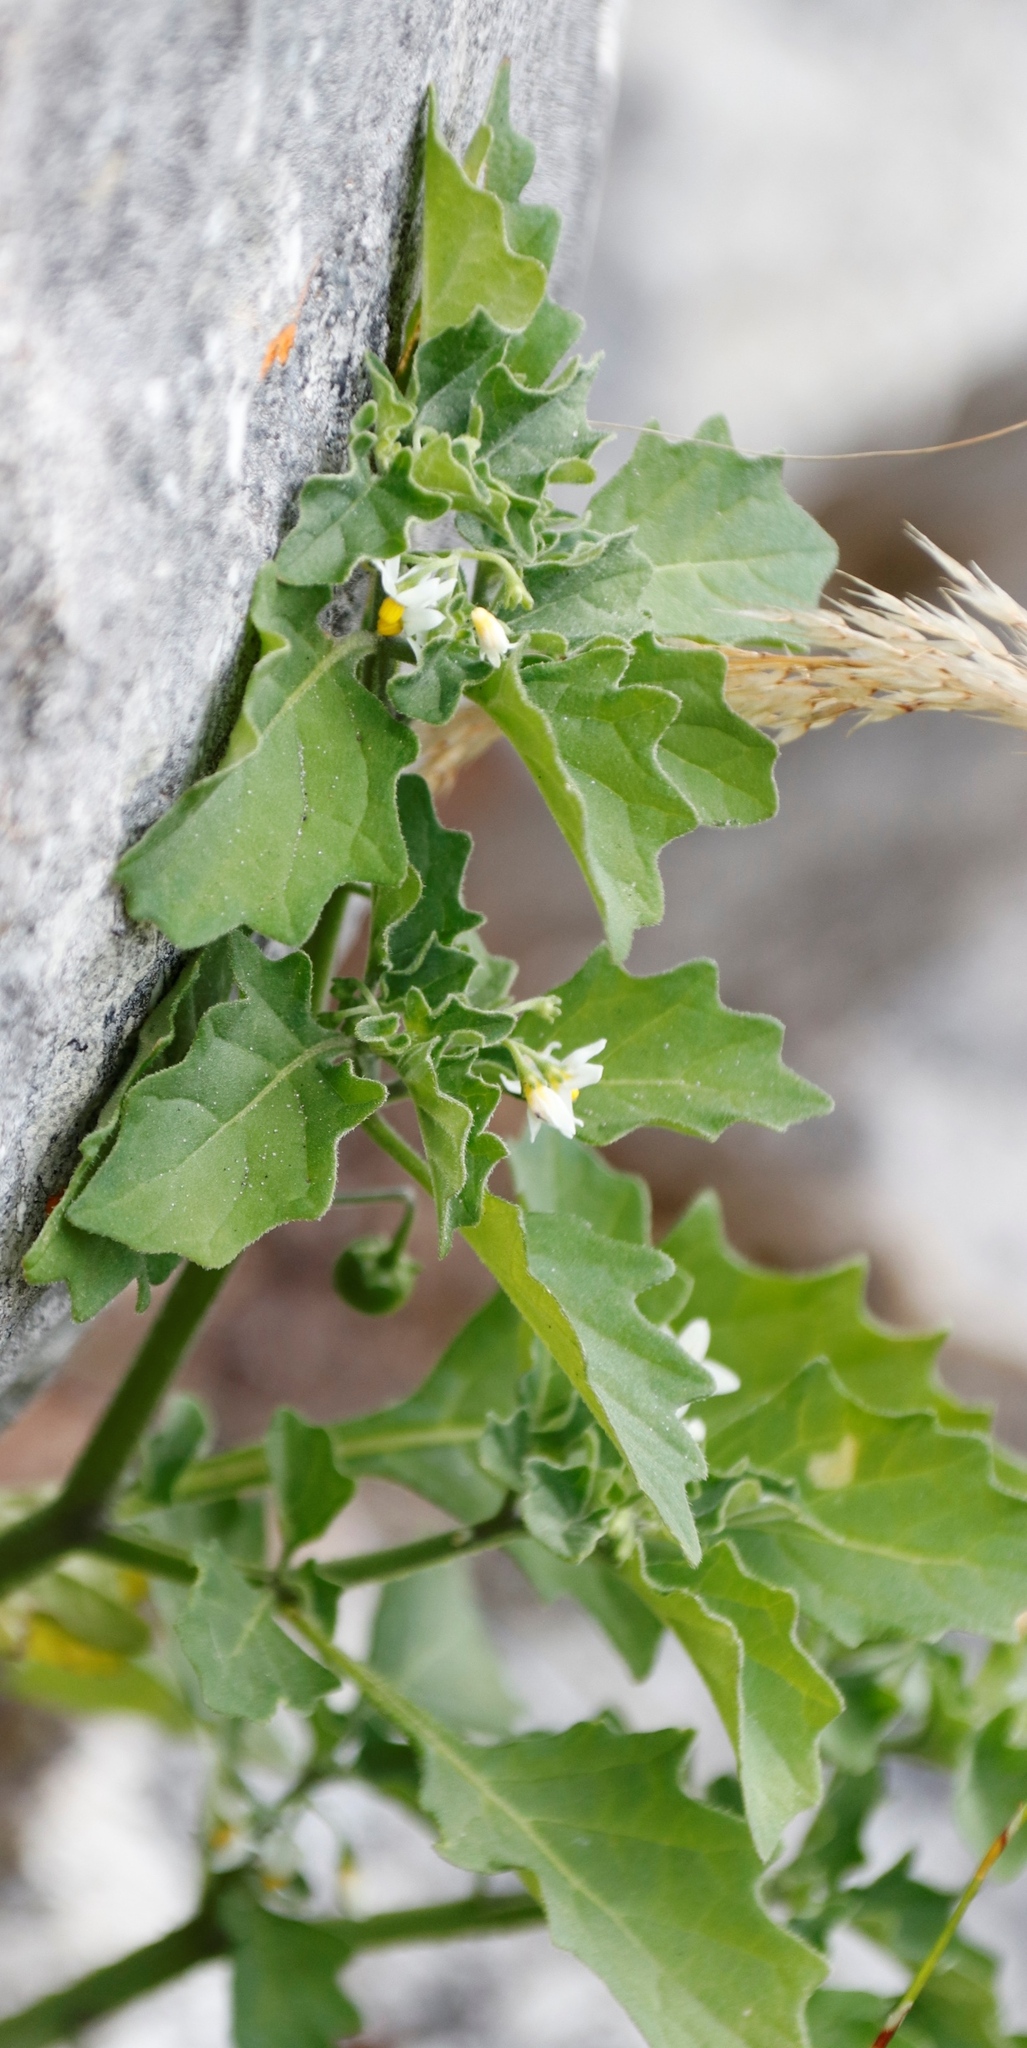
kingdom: Plantae
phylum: Tracheophyta
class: Magnoliopsida
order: Solanales
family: Solanaceae
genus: Solanum
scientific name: Solanum retroflexum
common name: Wonderberry
